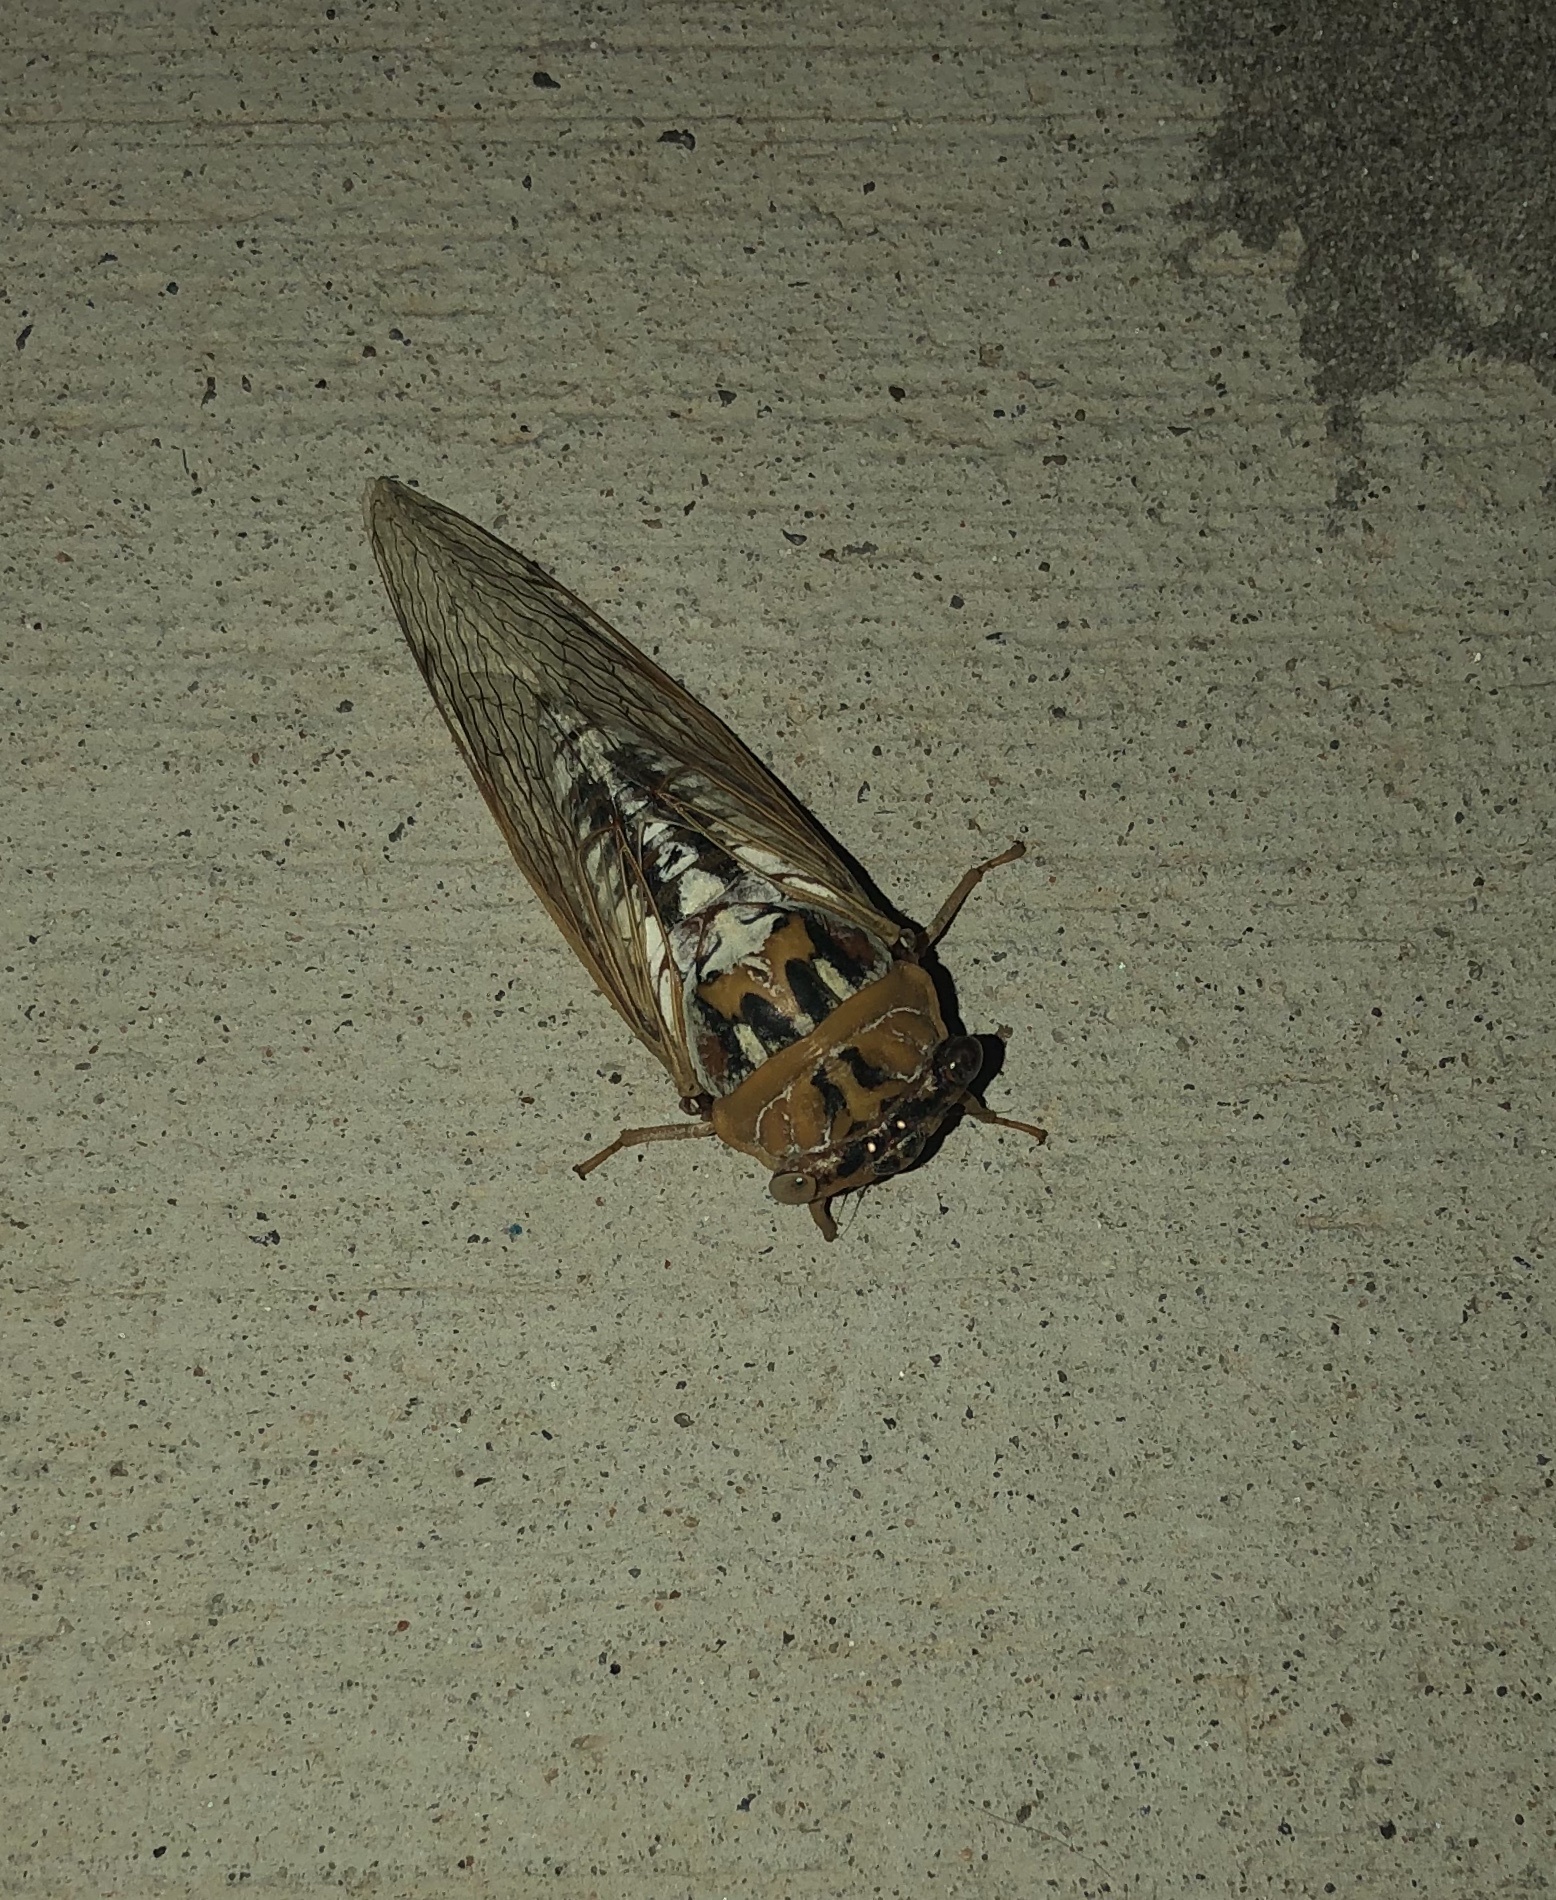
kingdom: Animalia
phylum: Arthropoda
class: Insecta
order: Hemiptera
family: Cicadidae
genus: Megatibicen
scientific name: Megatibicen dealbatus
